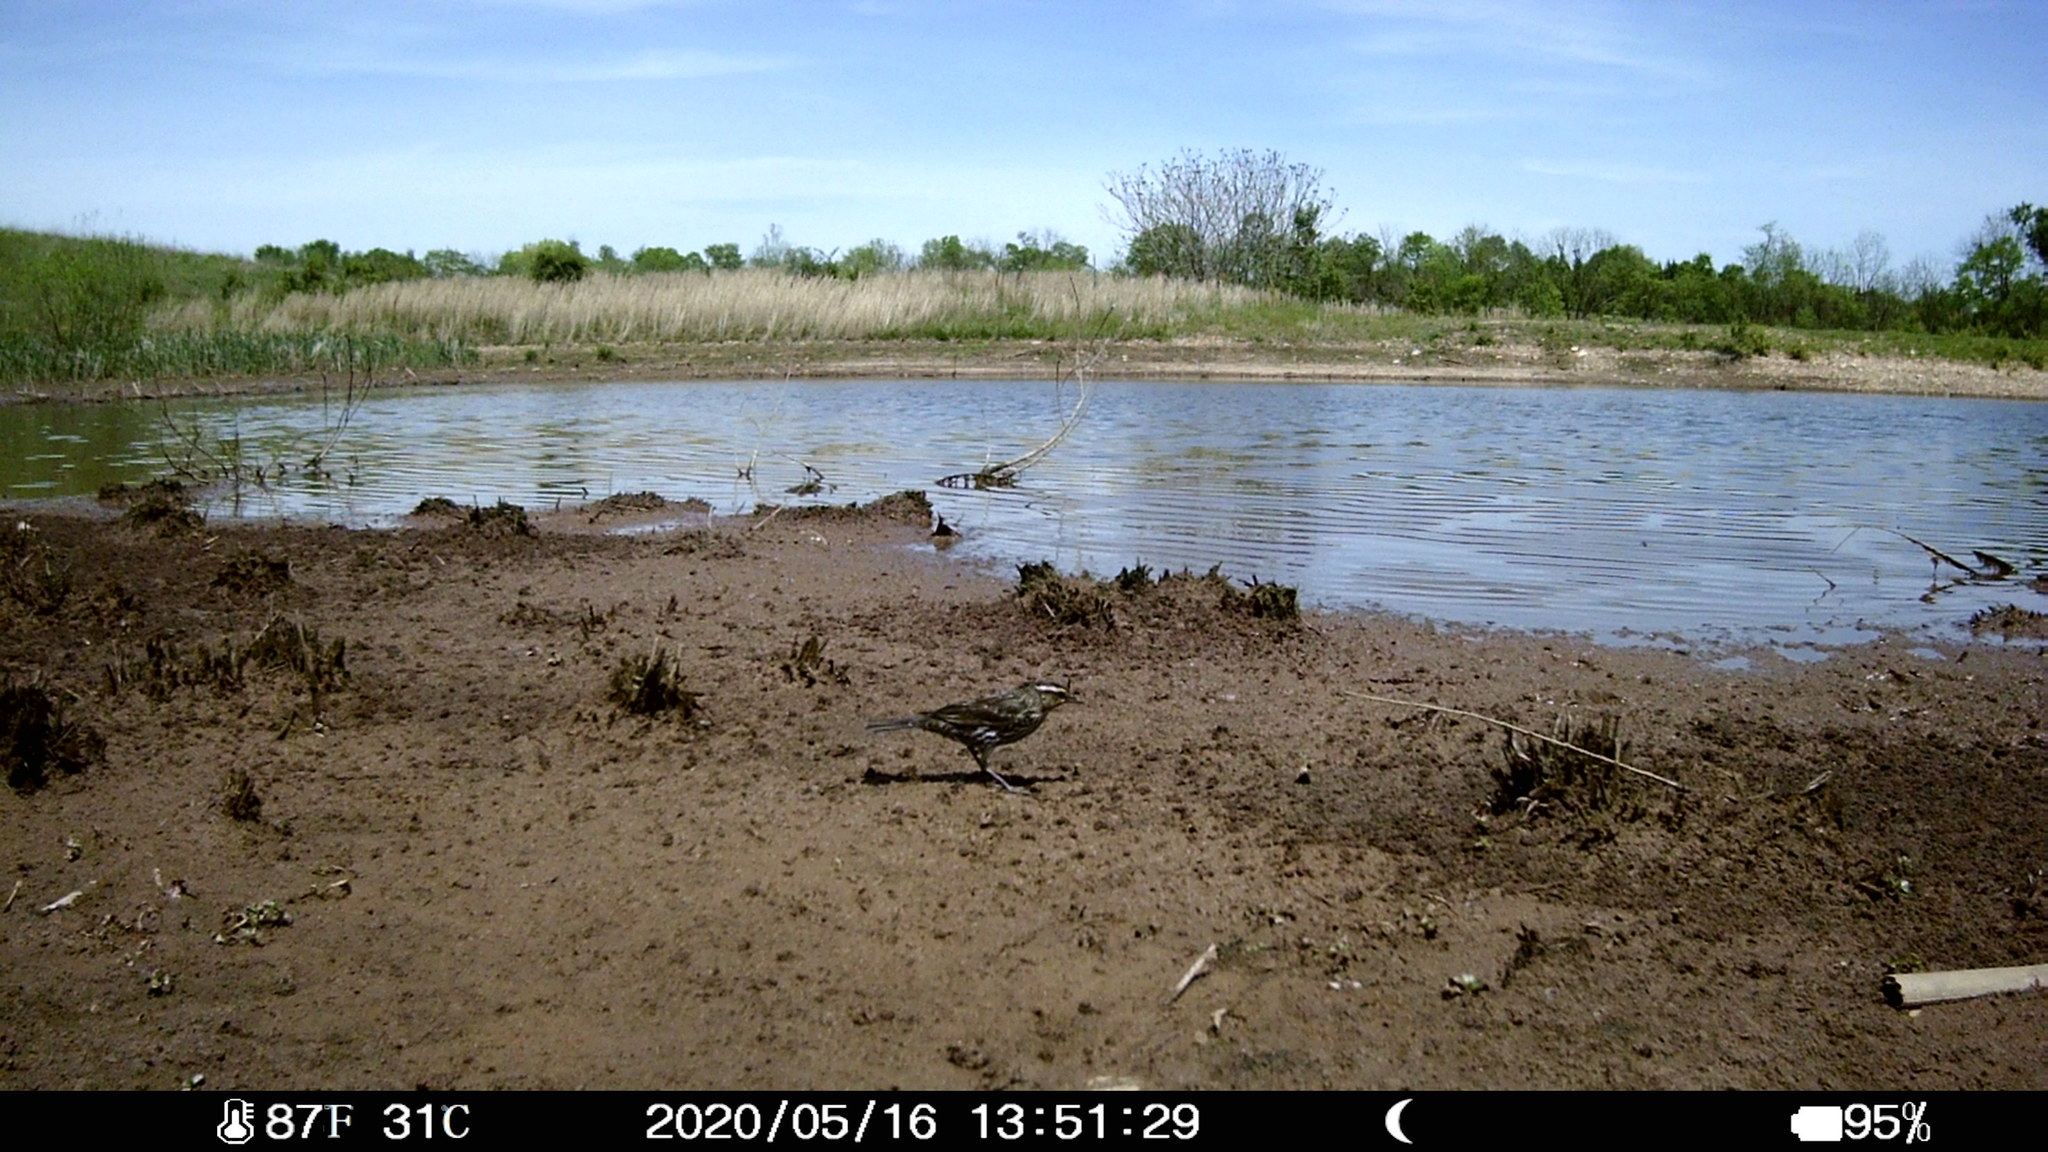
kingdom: Animalia
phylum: Chordata
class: Aves
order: Passeriformes
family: Icteridae
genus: Agelaius
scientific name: Agelaius phoeniceus
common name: Red-winged blackbird
